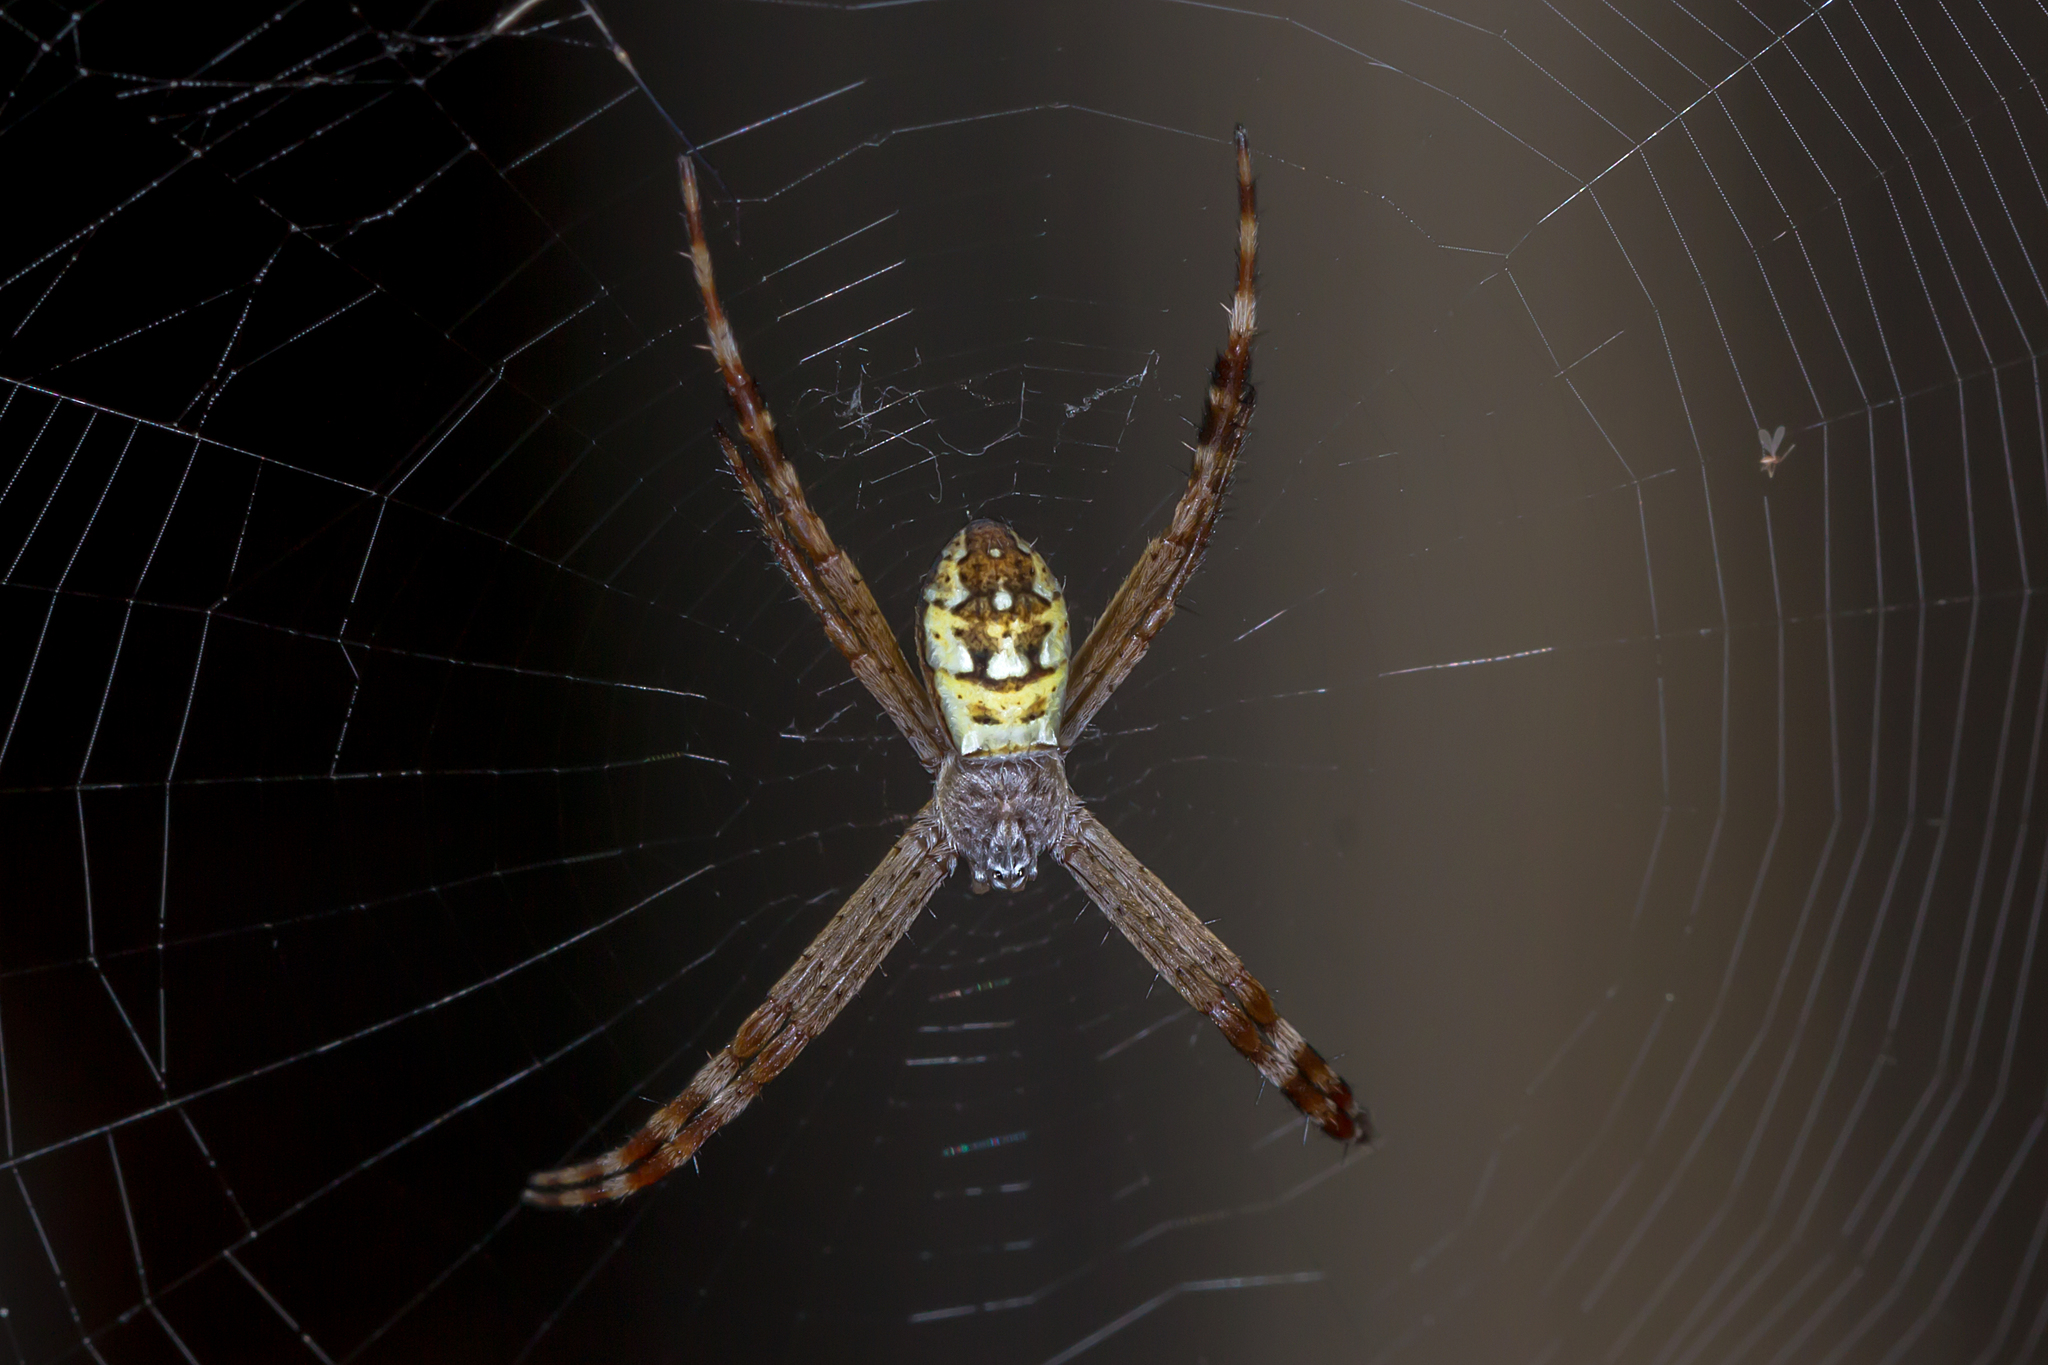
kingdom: Animalia
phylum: Arthropoda
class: Arachnida
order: Araneae
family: Araneidae
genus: Argiope
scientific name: Argiope picta
